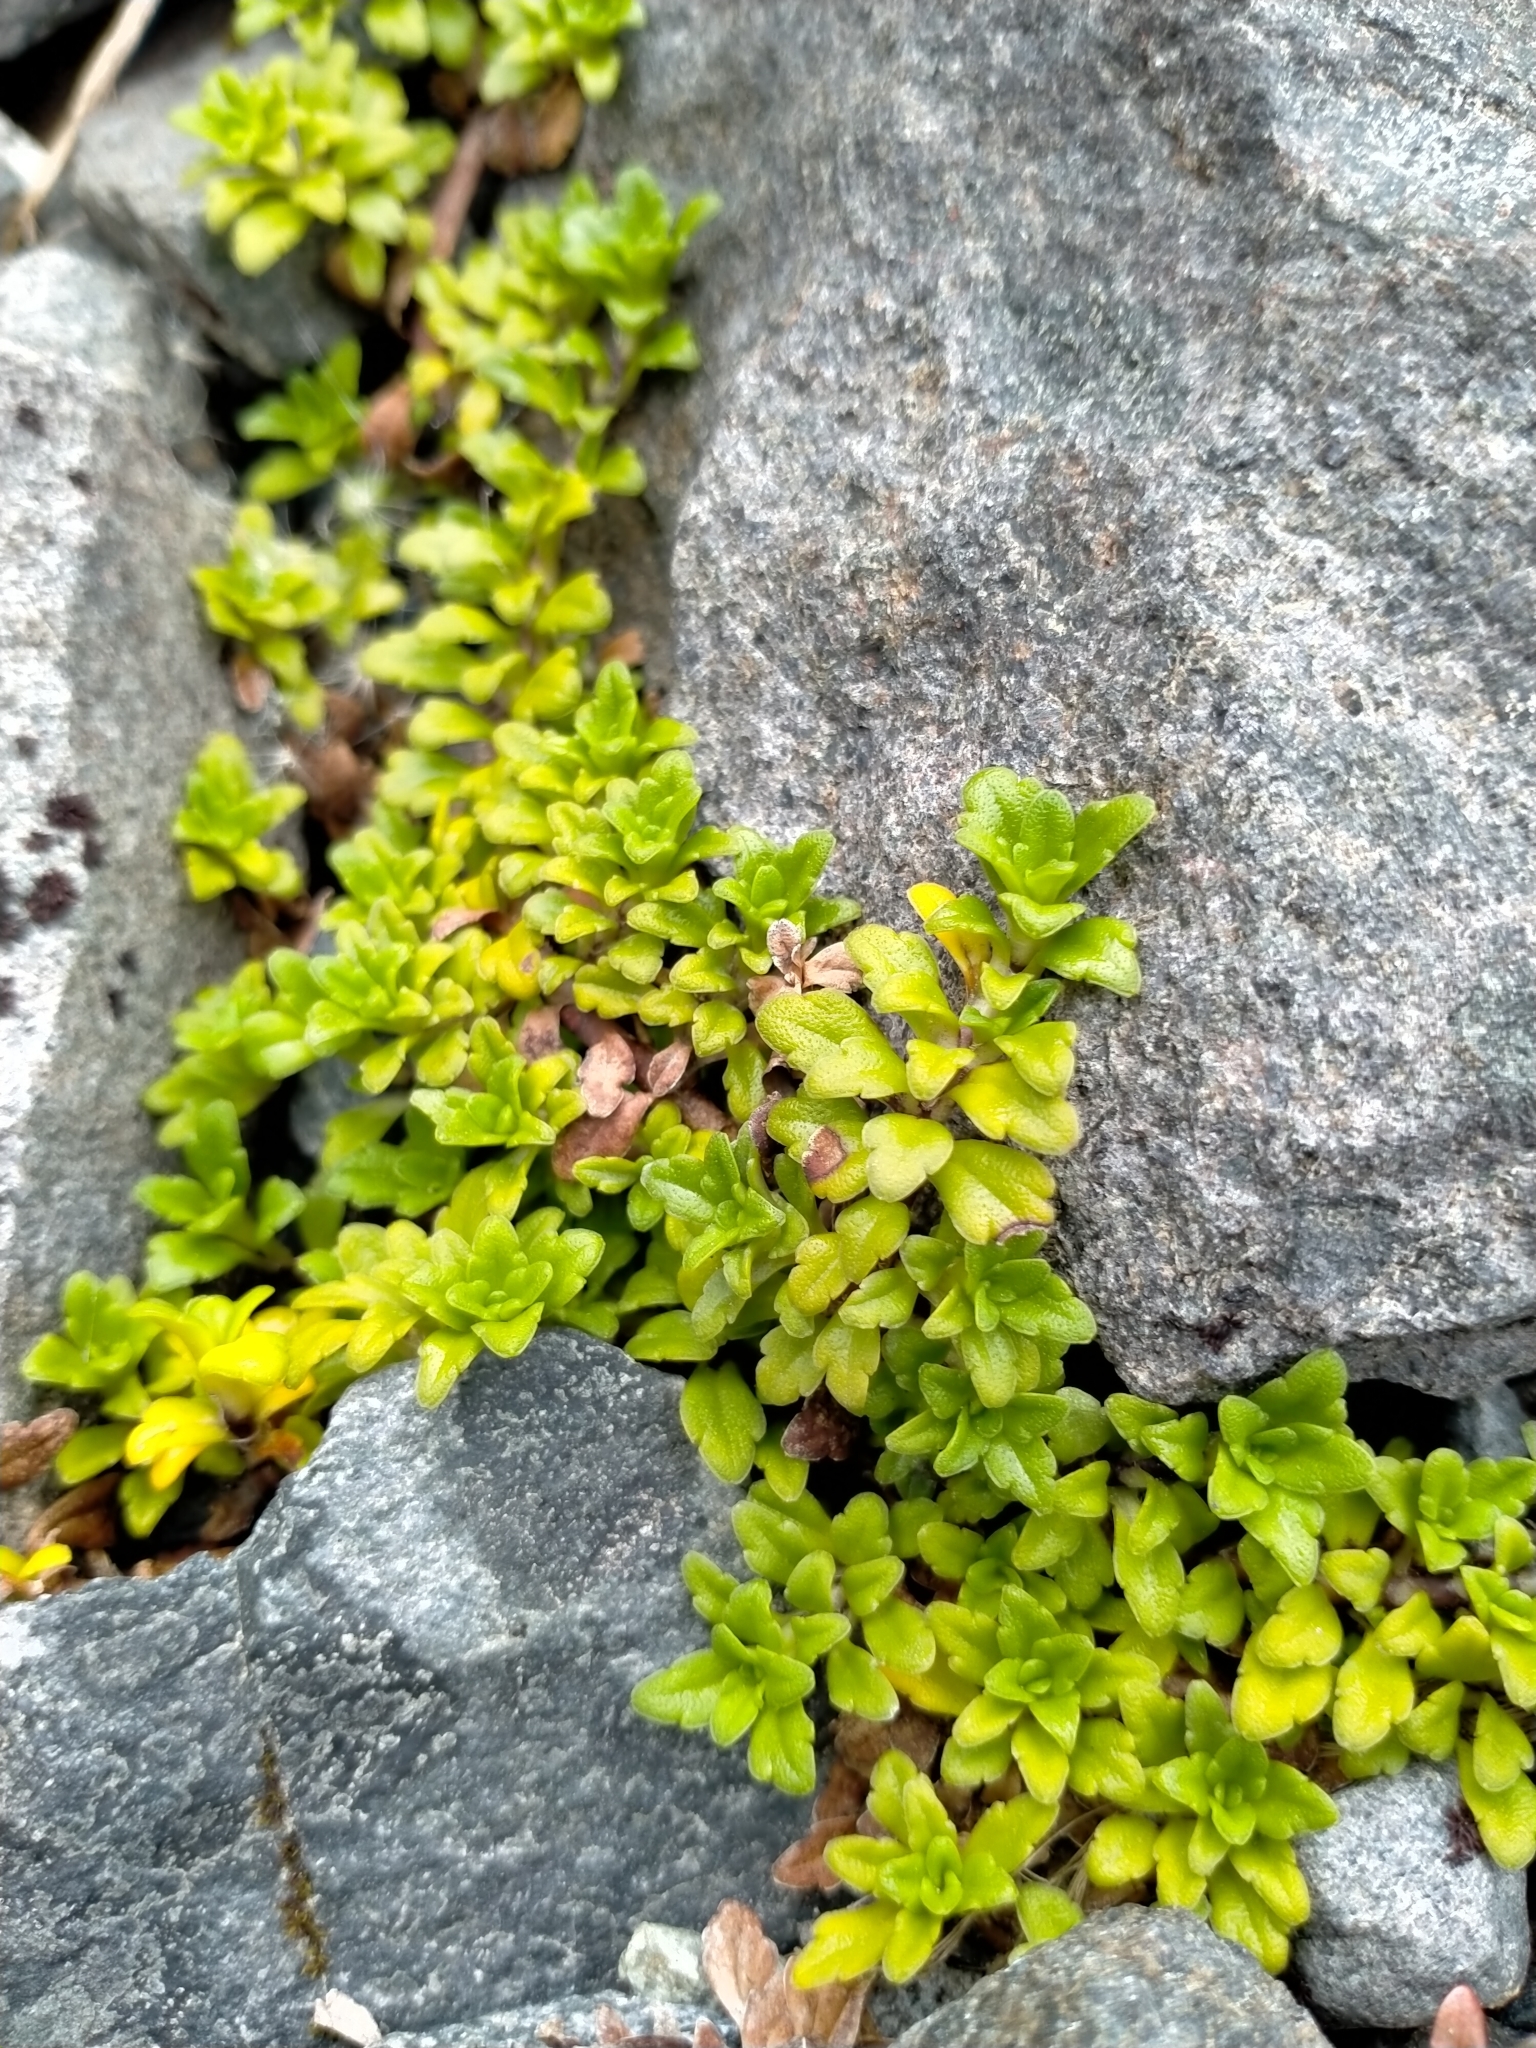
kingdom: Plantae
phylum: Tracheophyta
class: Magnoliopsida
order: Lamiales
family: Plantaginaceae
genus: Ourisia
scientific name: Ourisia caespitosa
